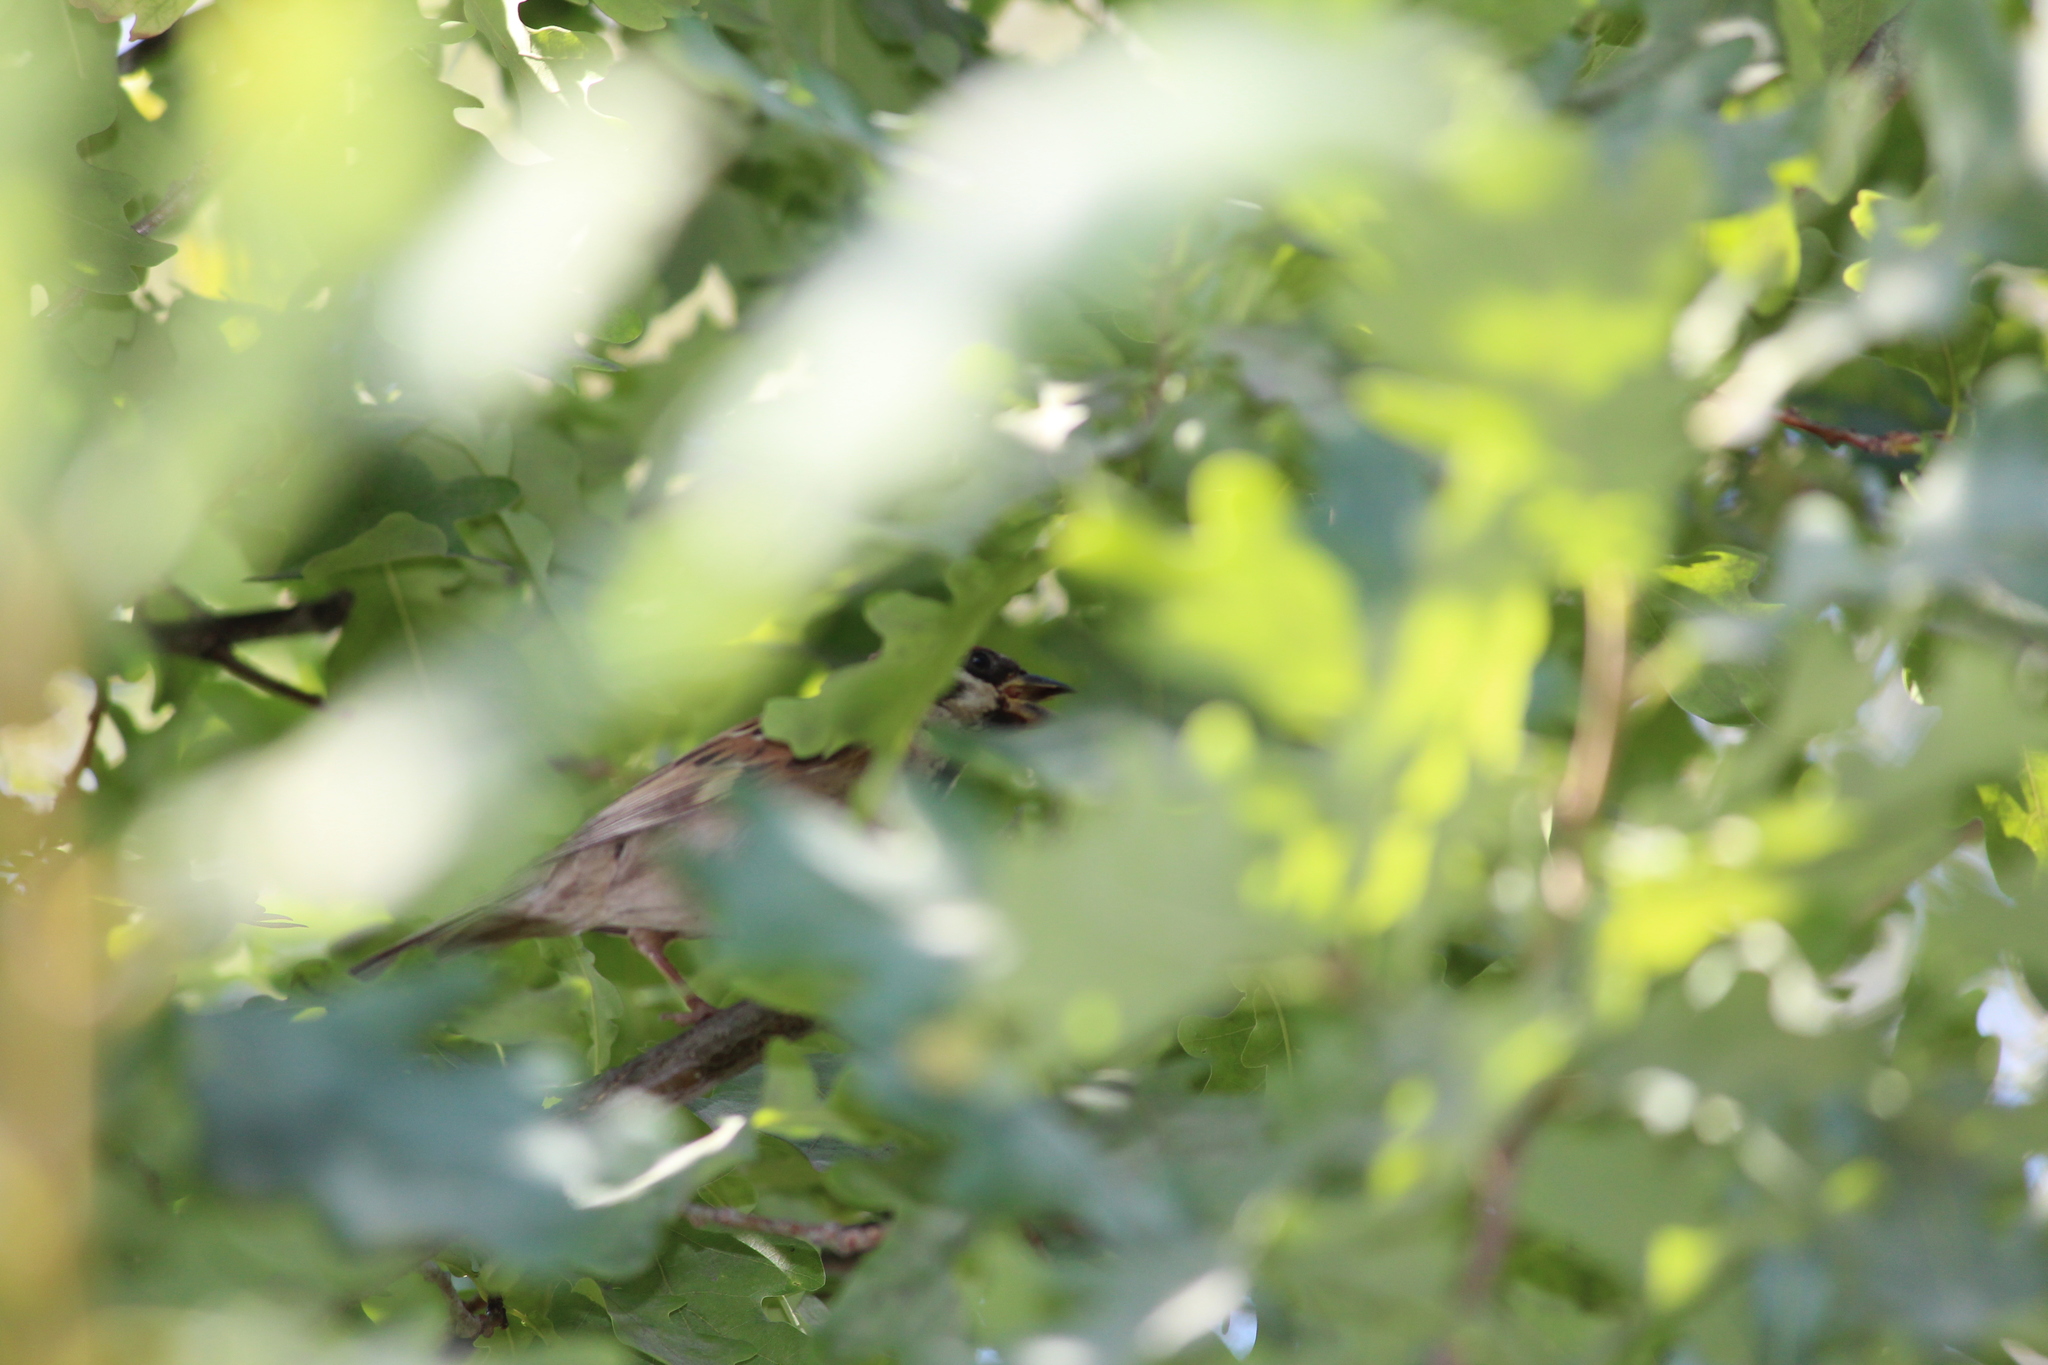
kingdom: Animalia
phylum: Chordata
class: Aves
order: Passeriformes
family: Passeridae
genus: Passer
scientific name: Passer montanus
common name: Eurasian tree sparrow
